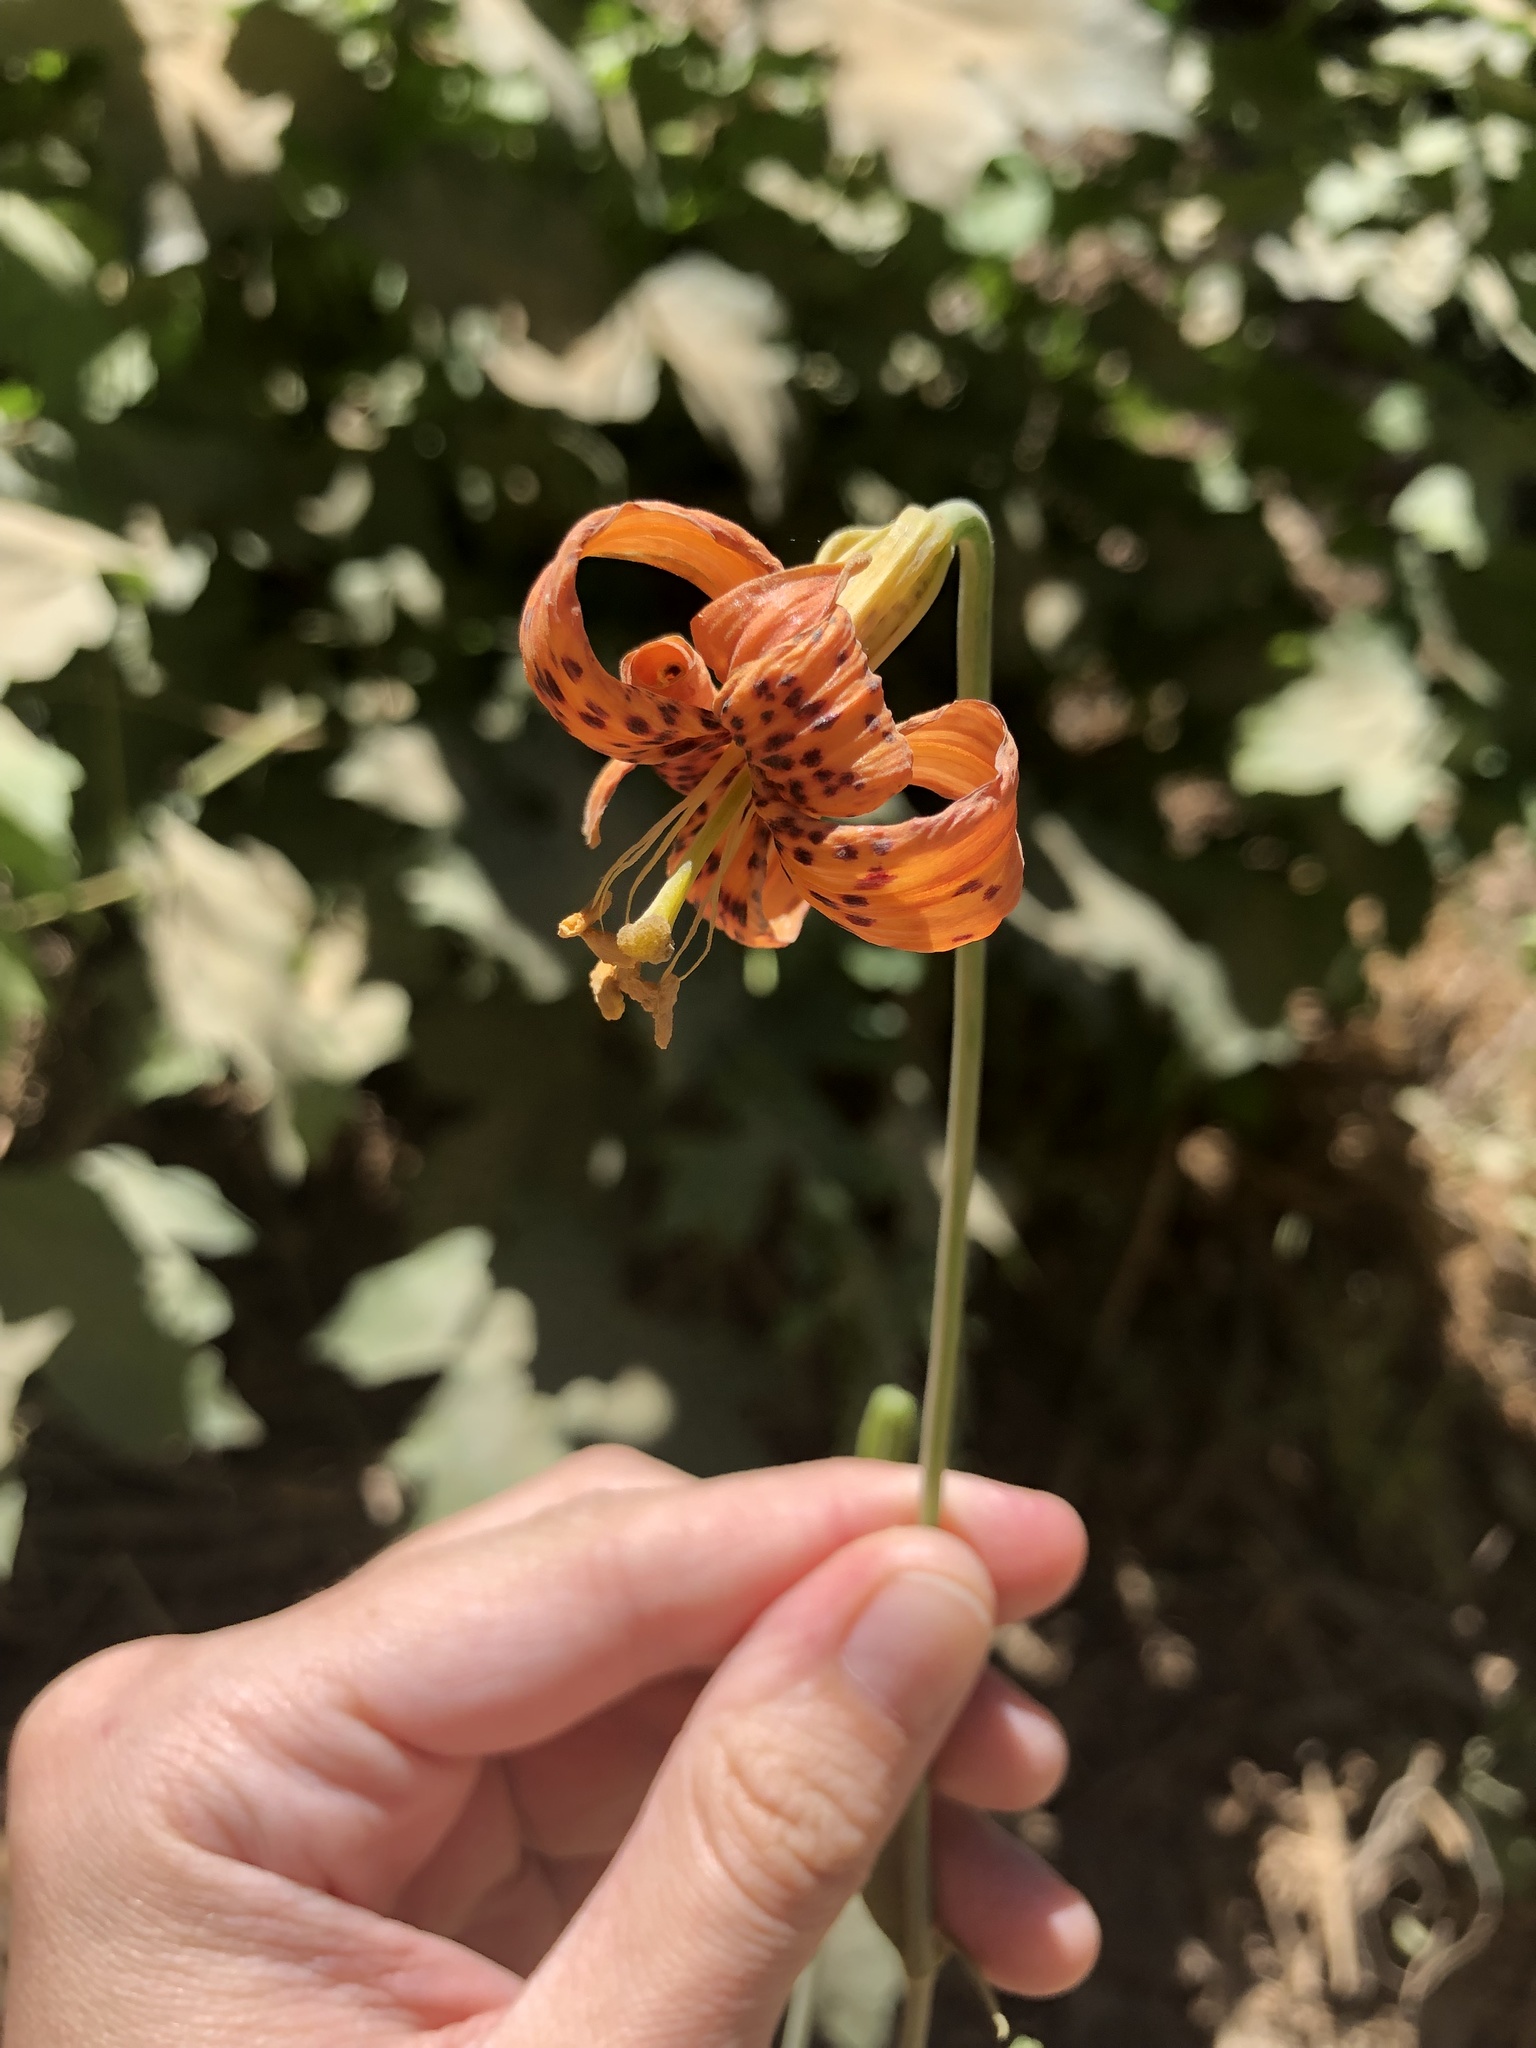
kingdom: Plantae
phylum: Tracheophyta
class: Liliopsida
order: Liliales
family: Liliaceae
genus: Lilium
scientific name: Lilium humboldtii
